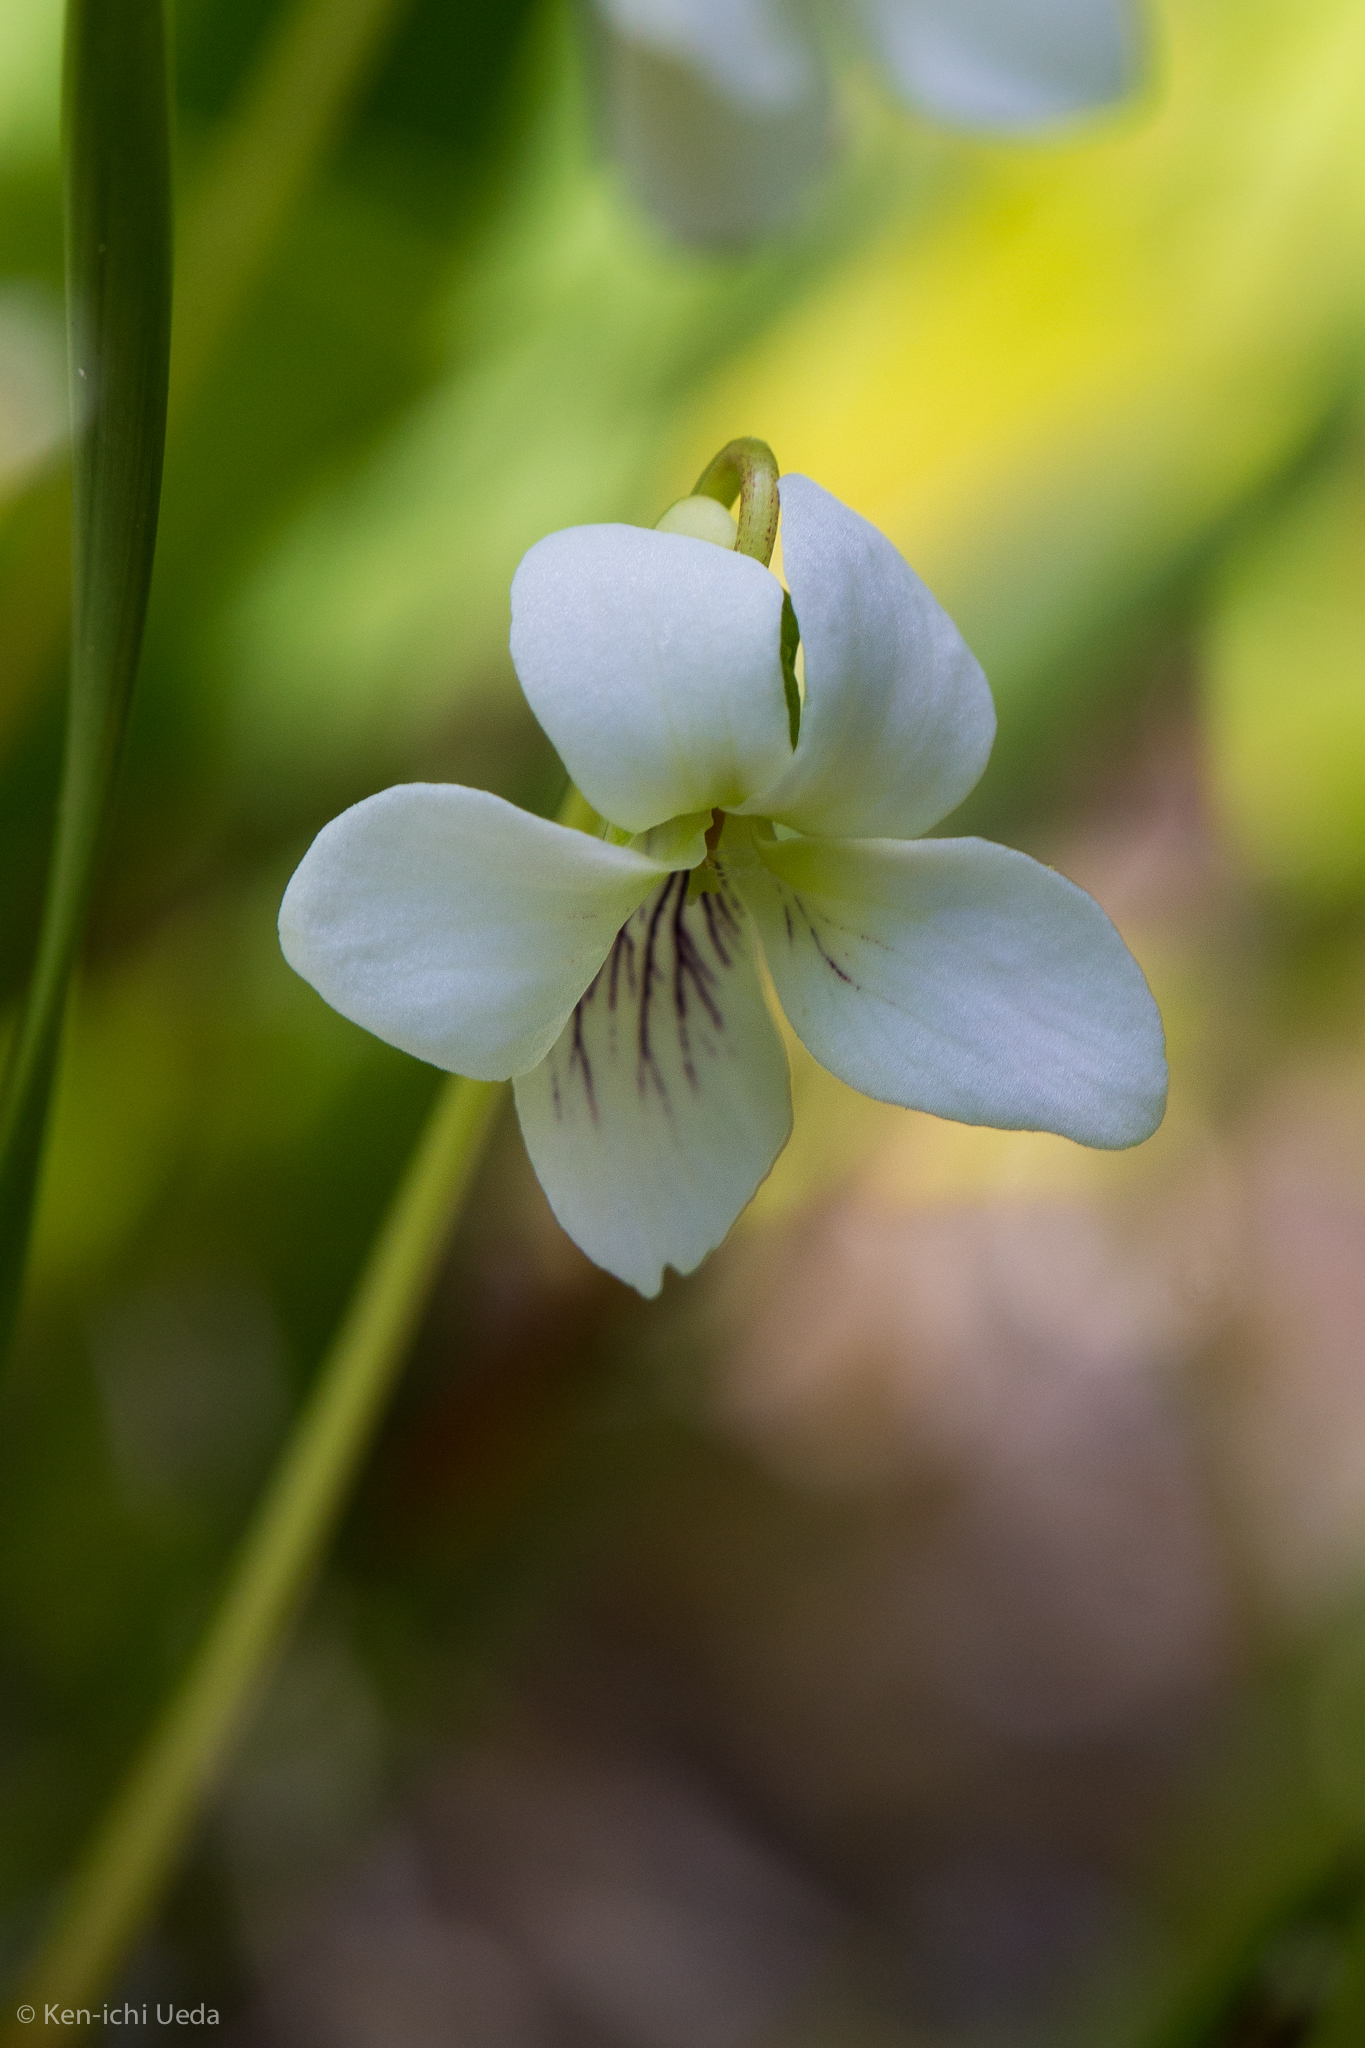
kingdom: Plantae
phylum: Tracheophyta
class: Magnoliopsida
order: Malpighiales
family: Violaceae
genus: Viola
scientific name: Viola macloskeyi
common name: Macloskey's violet
